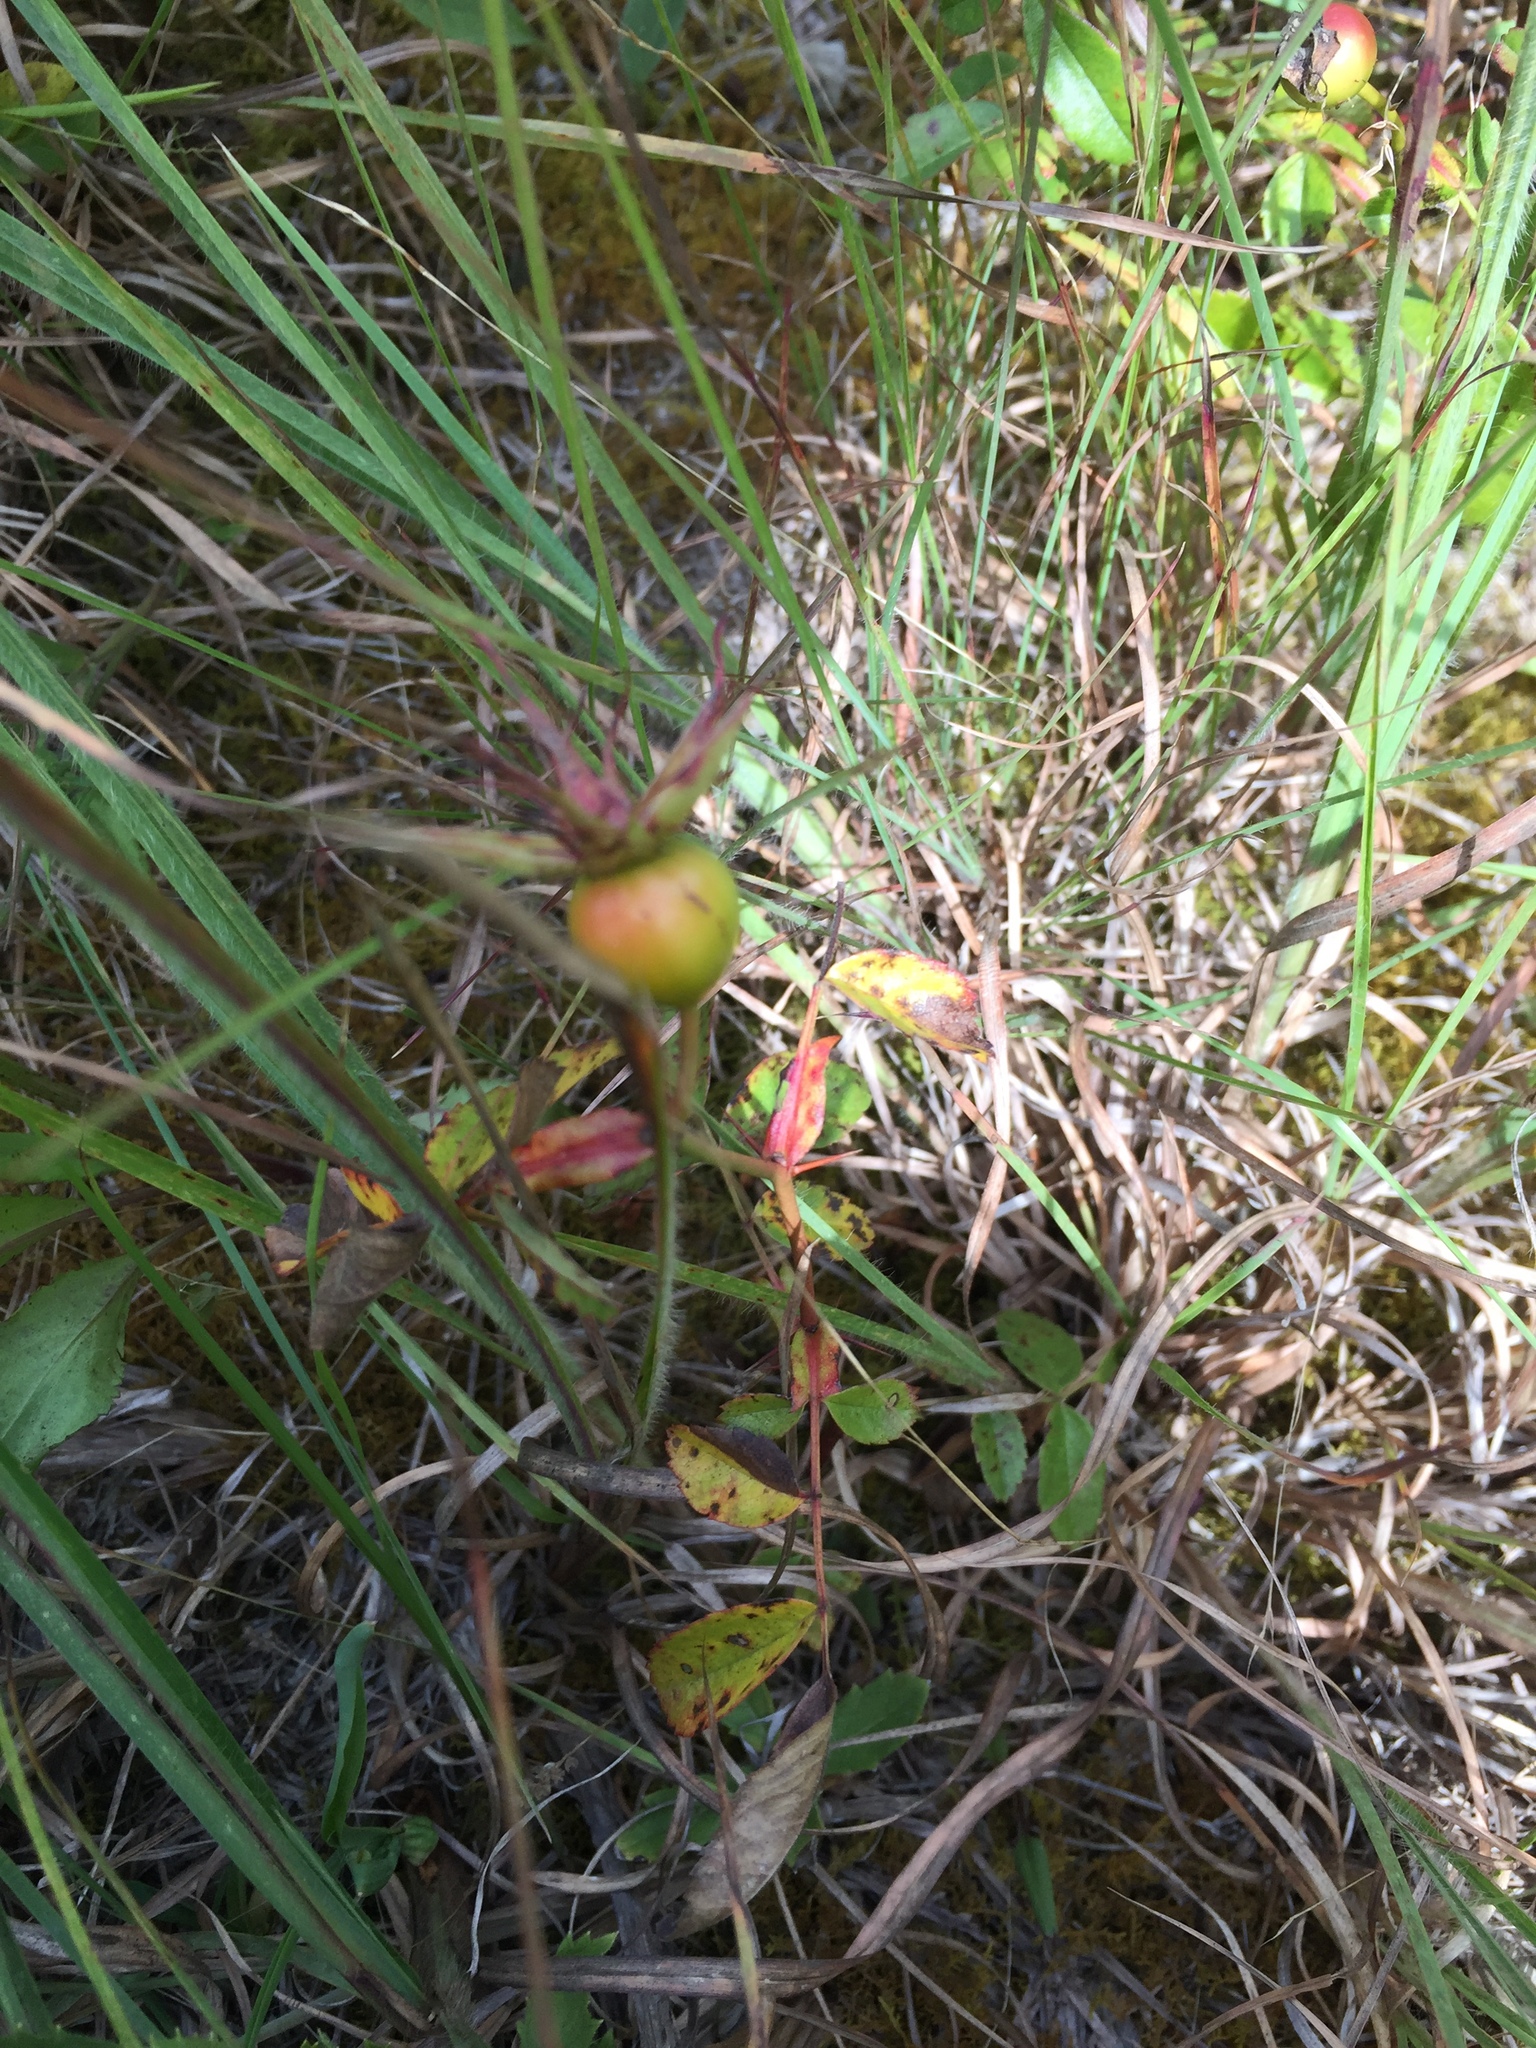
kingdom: Plantae
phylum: Tracheophyta
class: Magnoliopsida
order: Rosales
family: Rosaceae
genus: Rosa
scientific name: Rosa carolina
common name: Pasture rose
